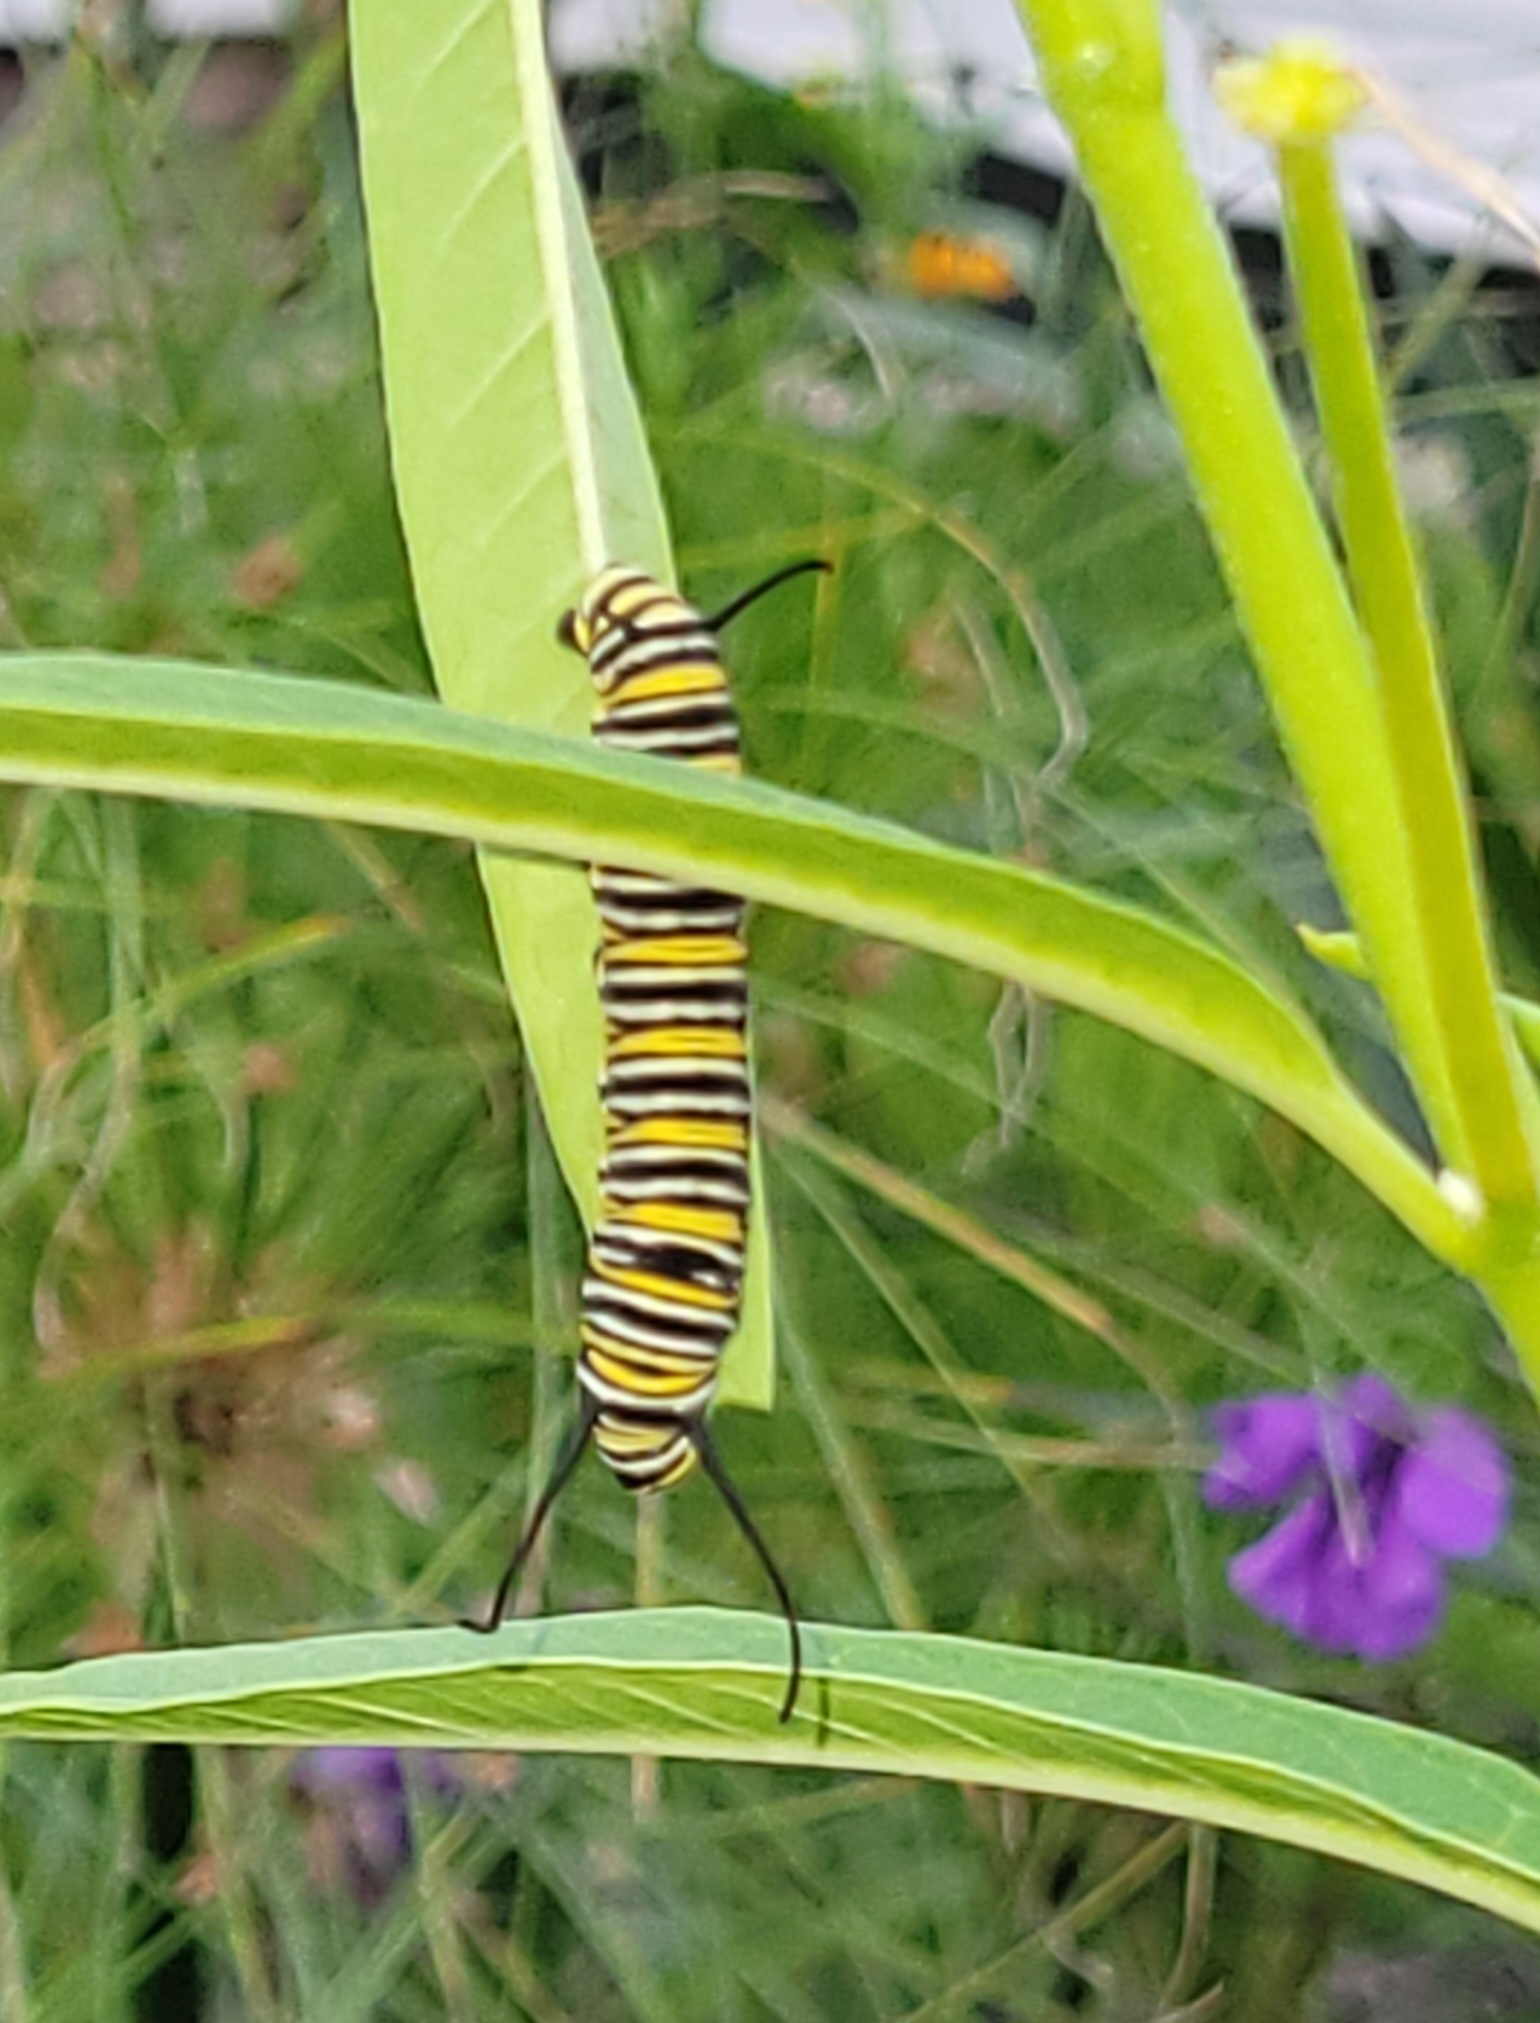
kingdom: Animalia
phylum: Arthropoda
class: Insecta
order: Lepidoptera
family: Nymphalidae
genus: Danaus
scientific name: Danaus plexippus
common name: Monarch
